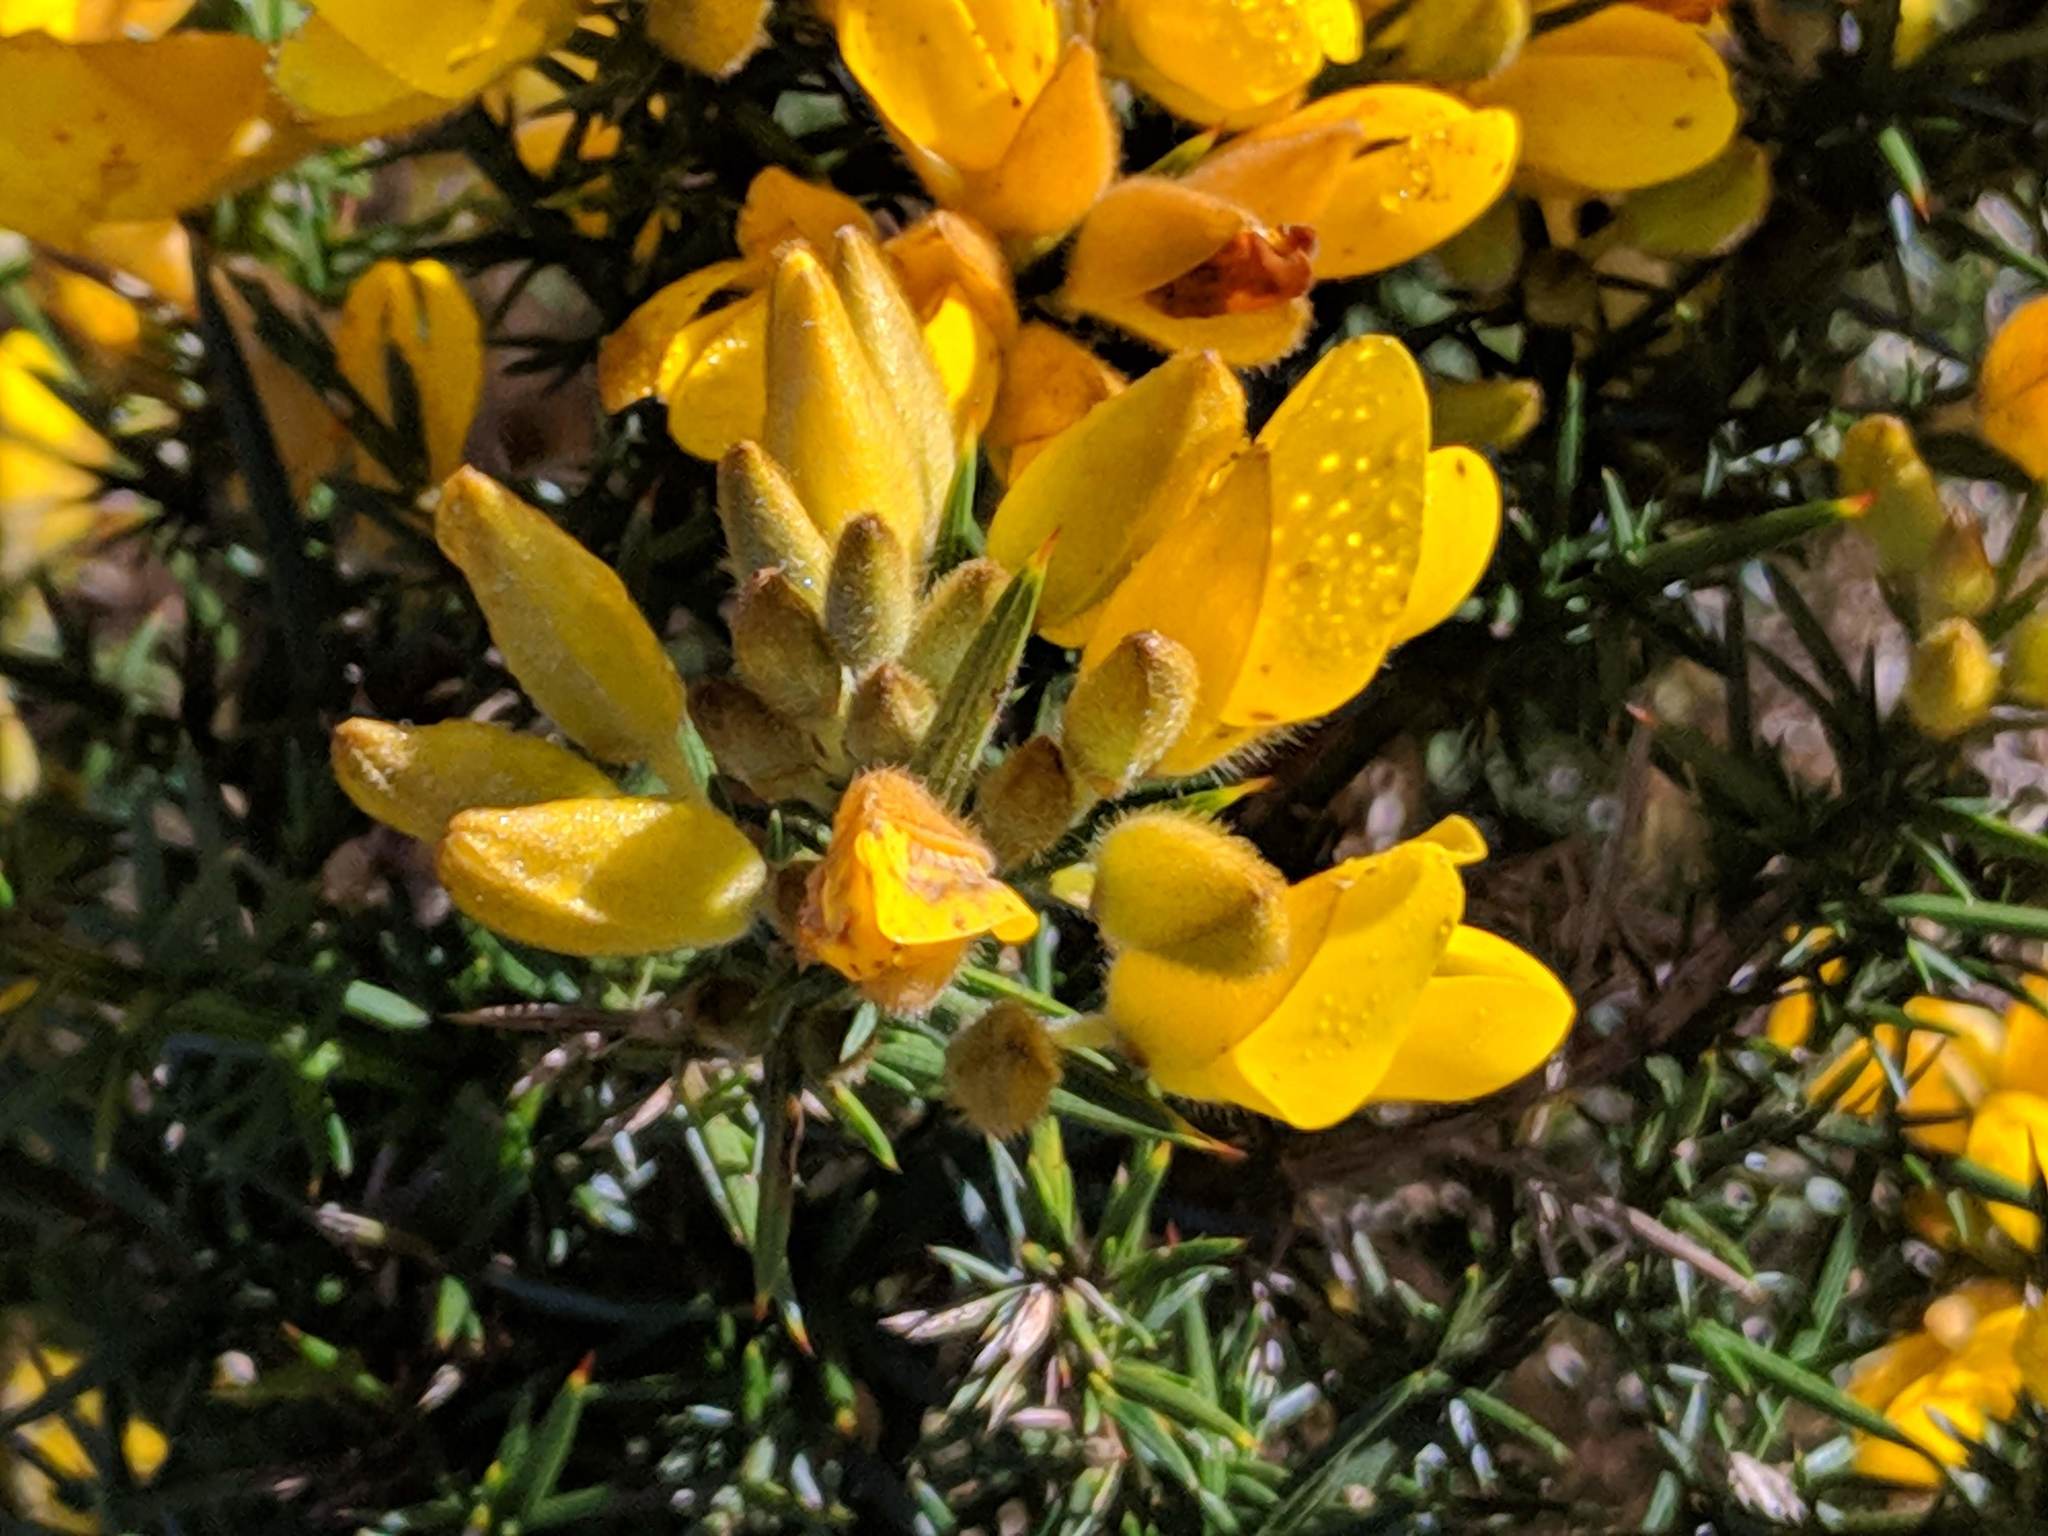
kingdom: Plantae
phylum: Tracheophyta
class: Magnoliopsida
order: Fabales
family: Fabaceae
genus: Ulex
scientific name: Ulex europaeus
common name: Common gorse
